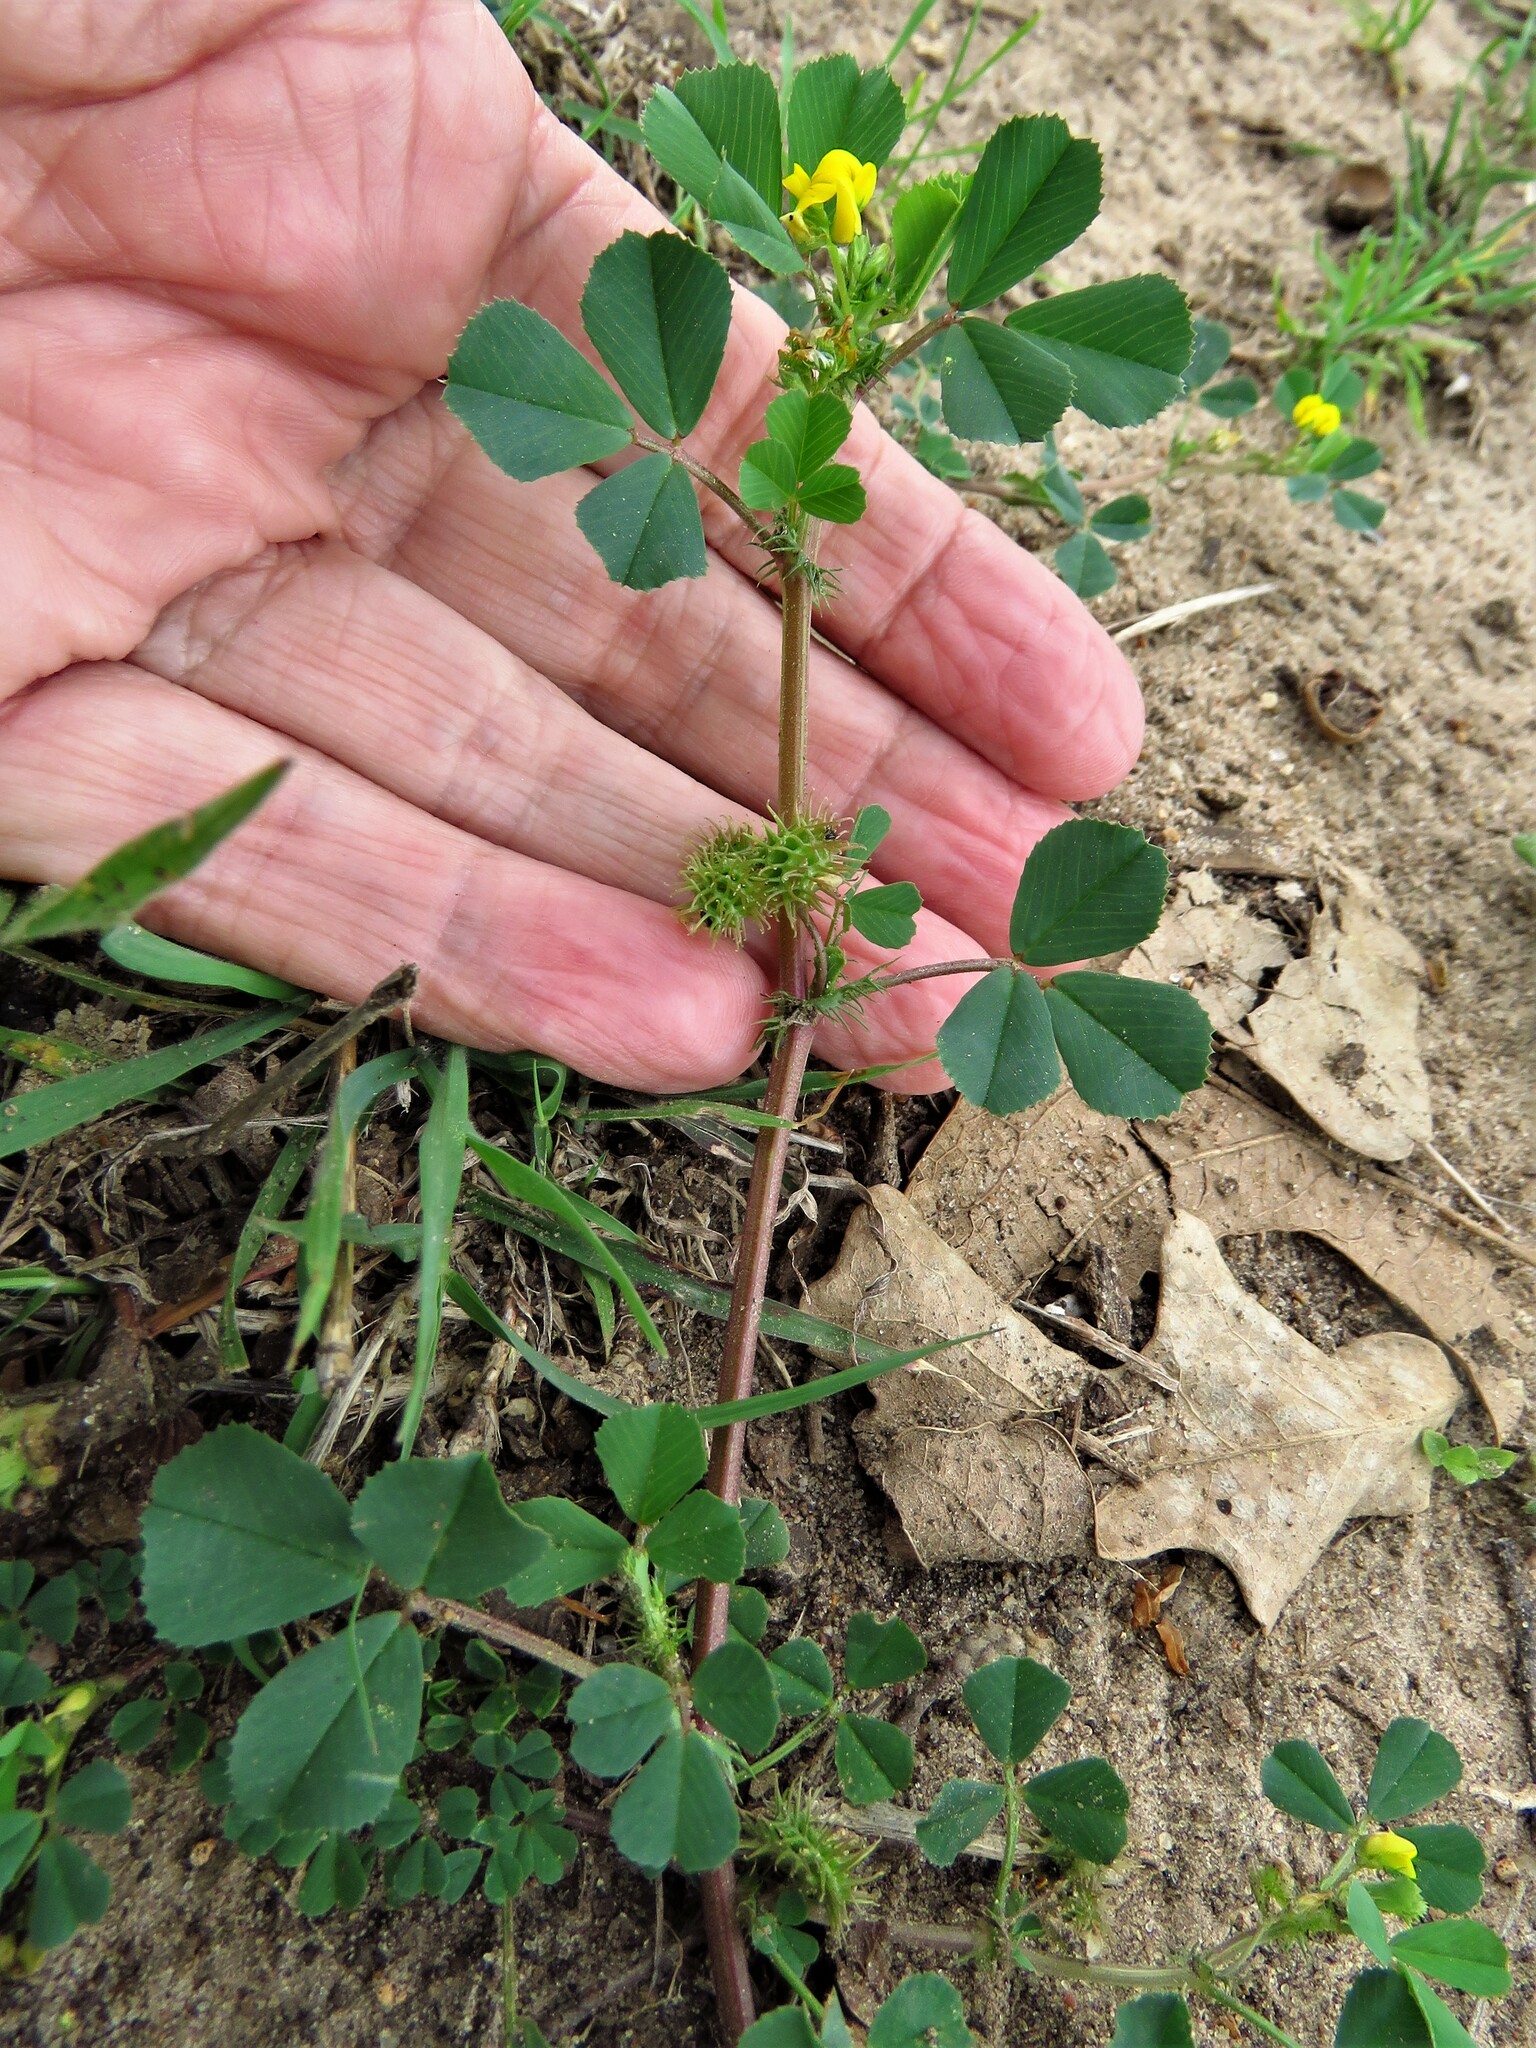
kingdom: Plantae
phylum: Tracheophyta
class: Magnoliopsida
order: Fabales
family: Fabaceae
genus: Medicago
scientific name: Medicago polymorpha
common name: Burclover
